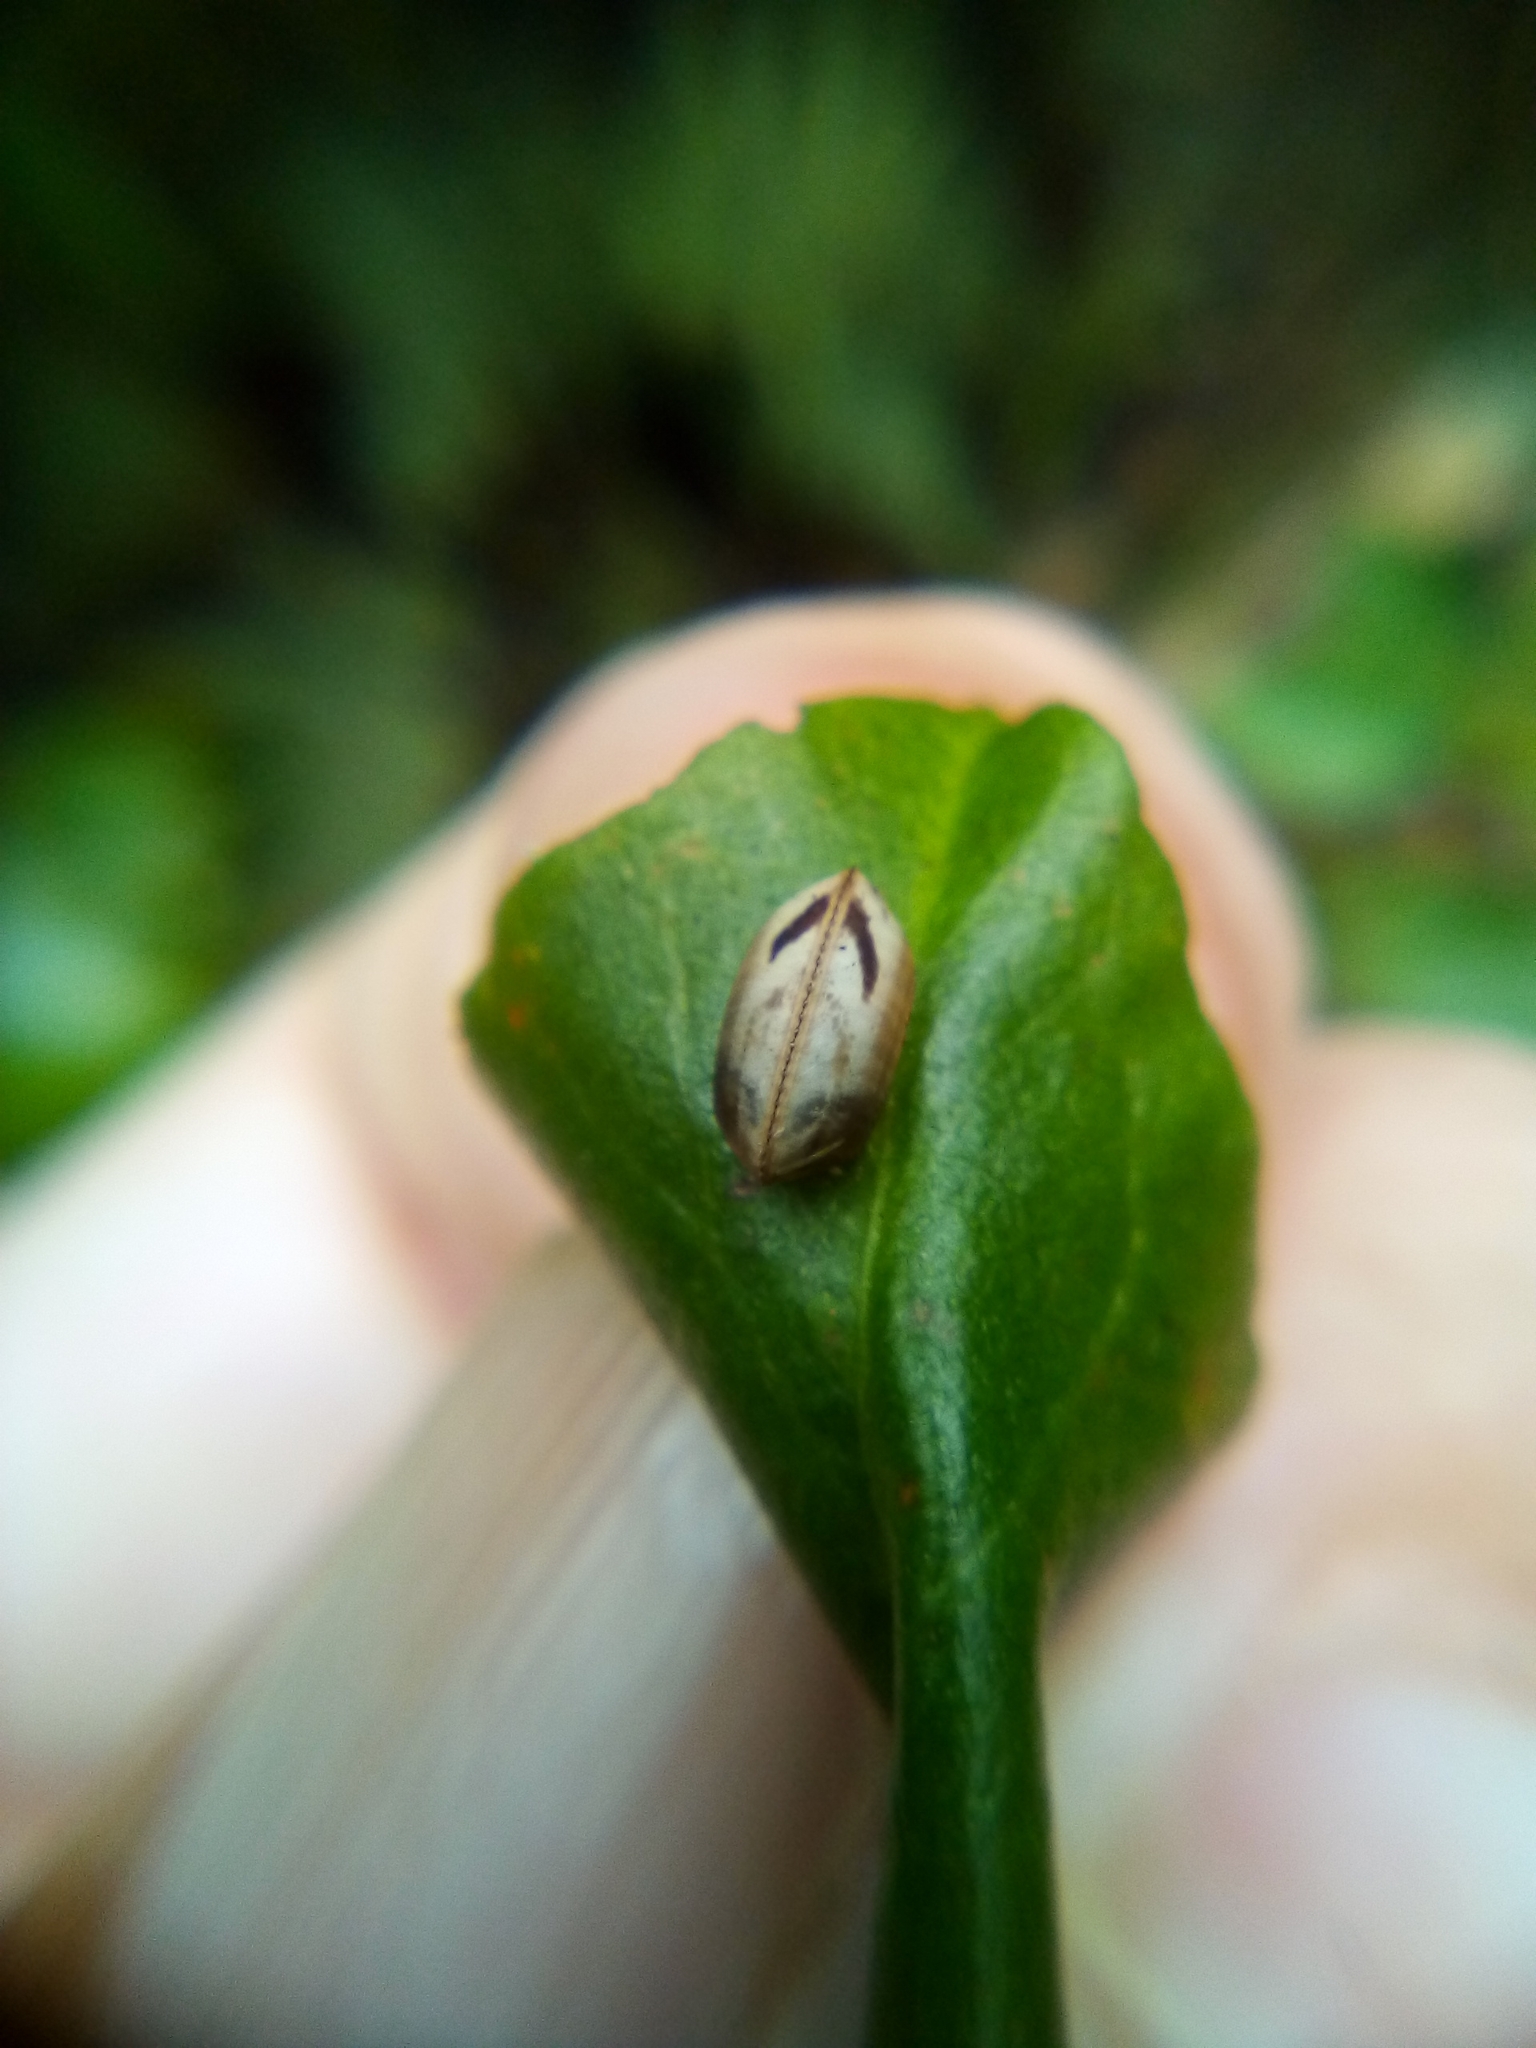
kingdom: Animalia
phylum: Arthropoda
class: Insecta
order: Blattodea
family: Ectobiidae
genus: Balta
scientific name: Balta bicolor
